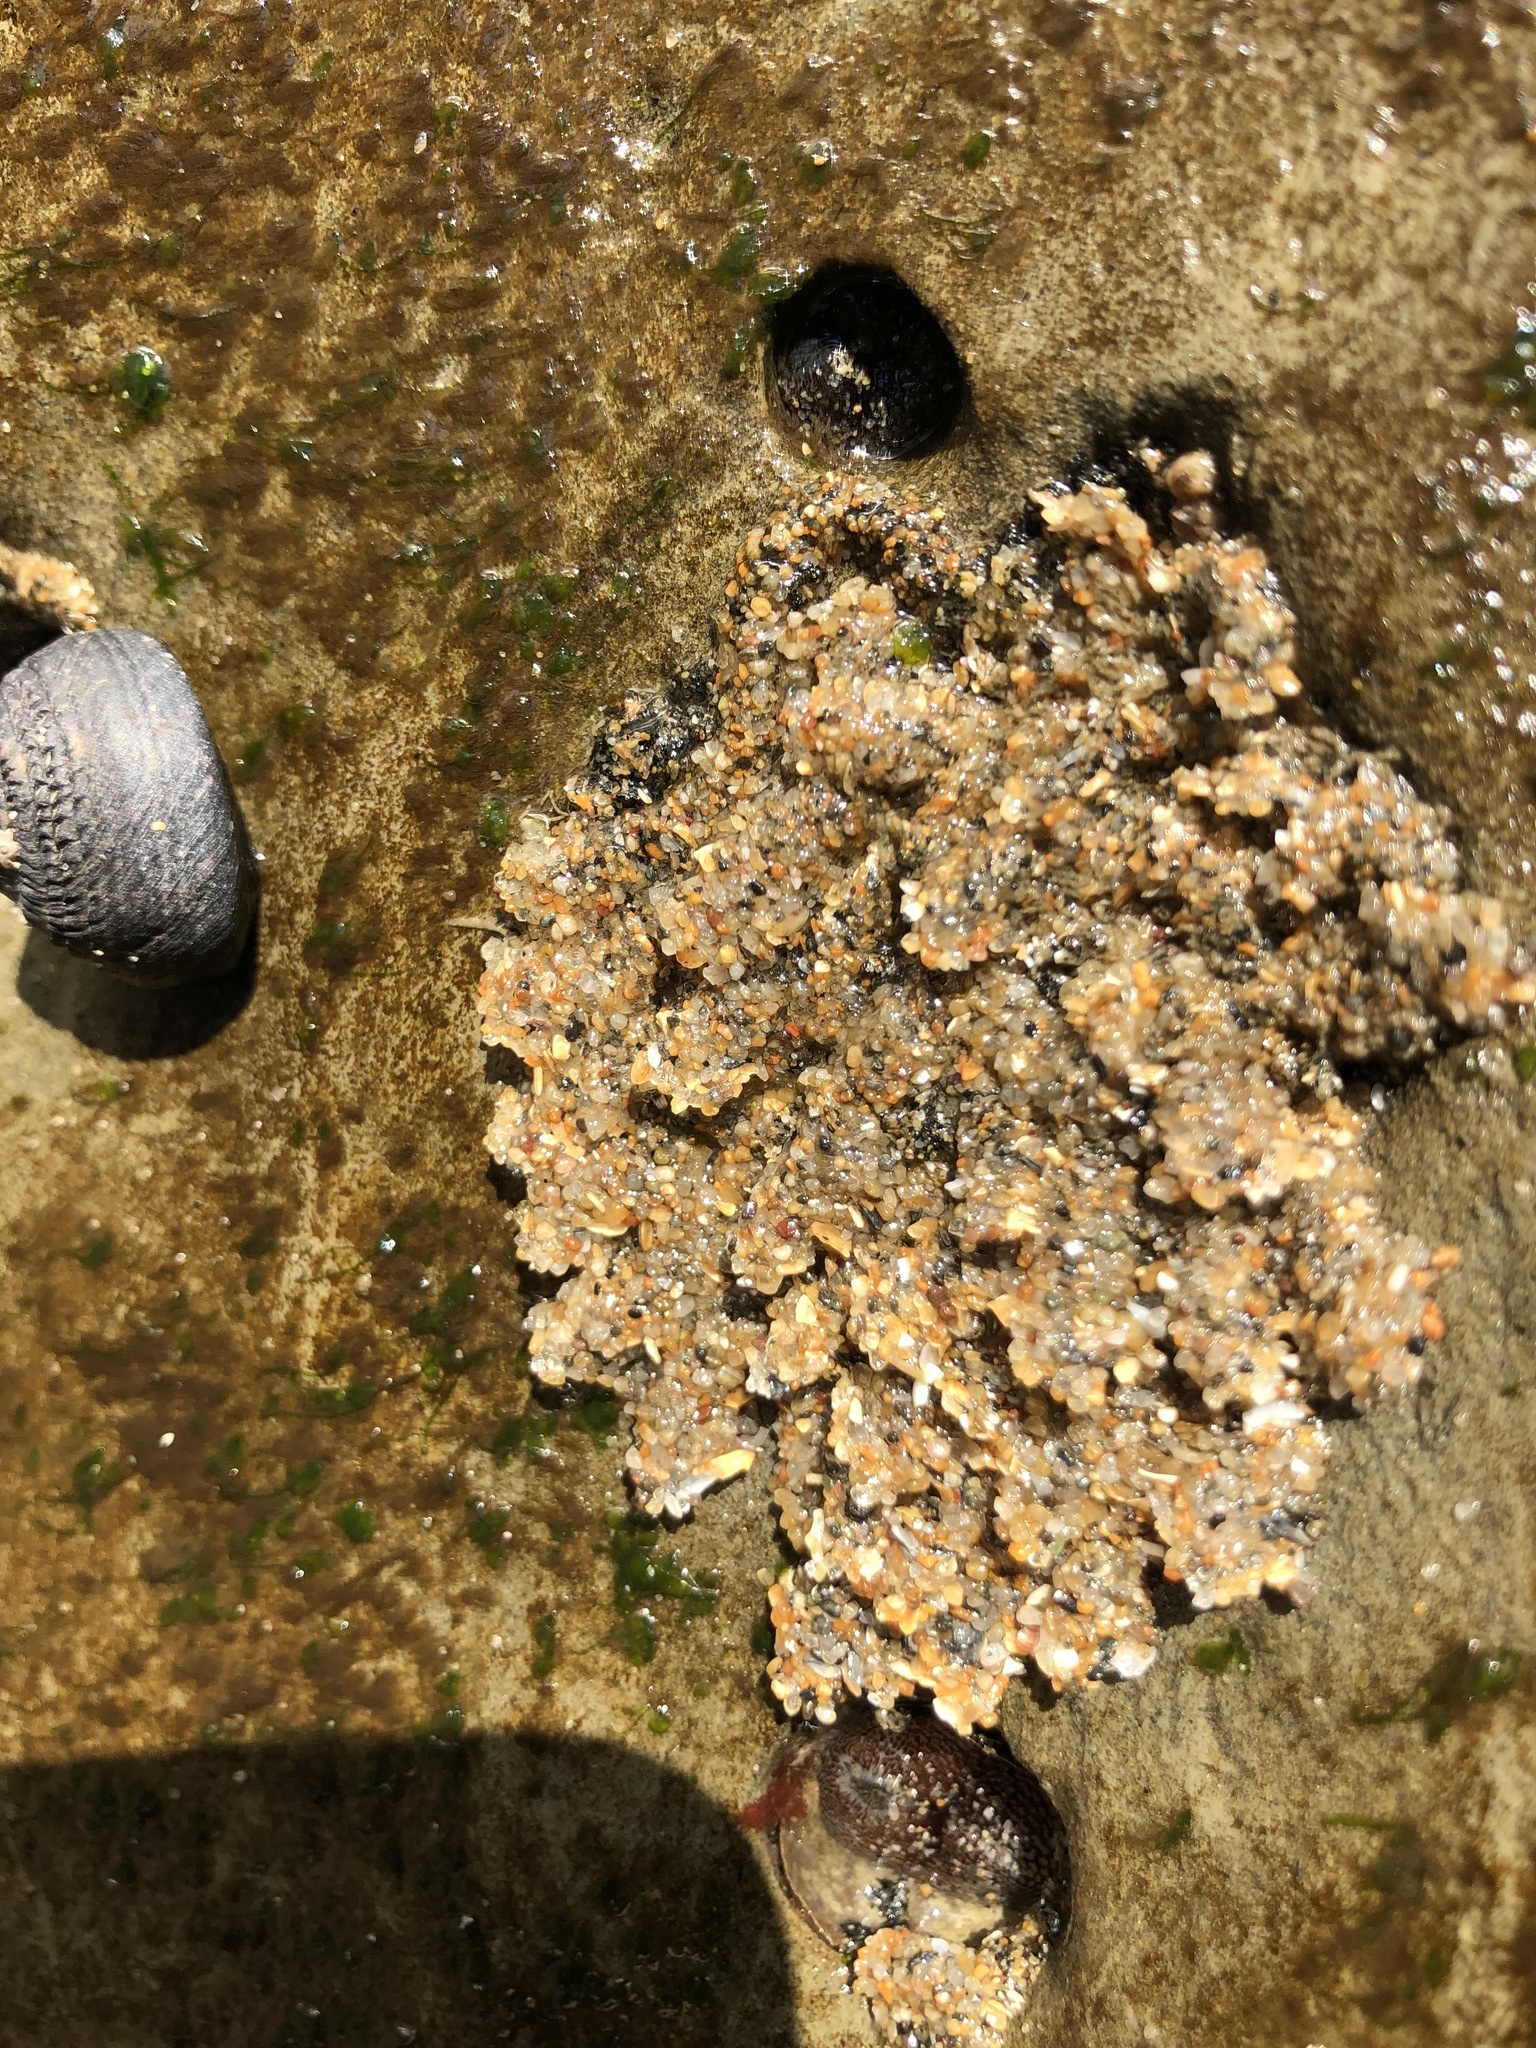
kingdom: Animalia
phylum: Annelida
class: Polychaeta
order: Sabellida
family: Sabellariidae
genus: Phragmatopoma
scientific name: Phragmatopoma californica
